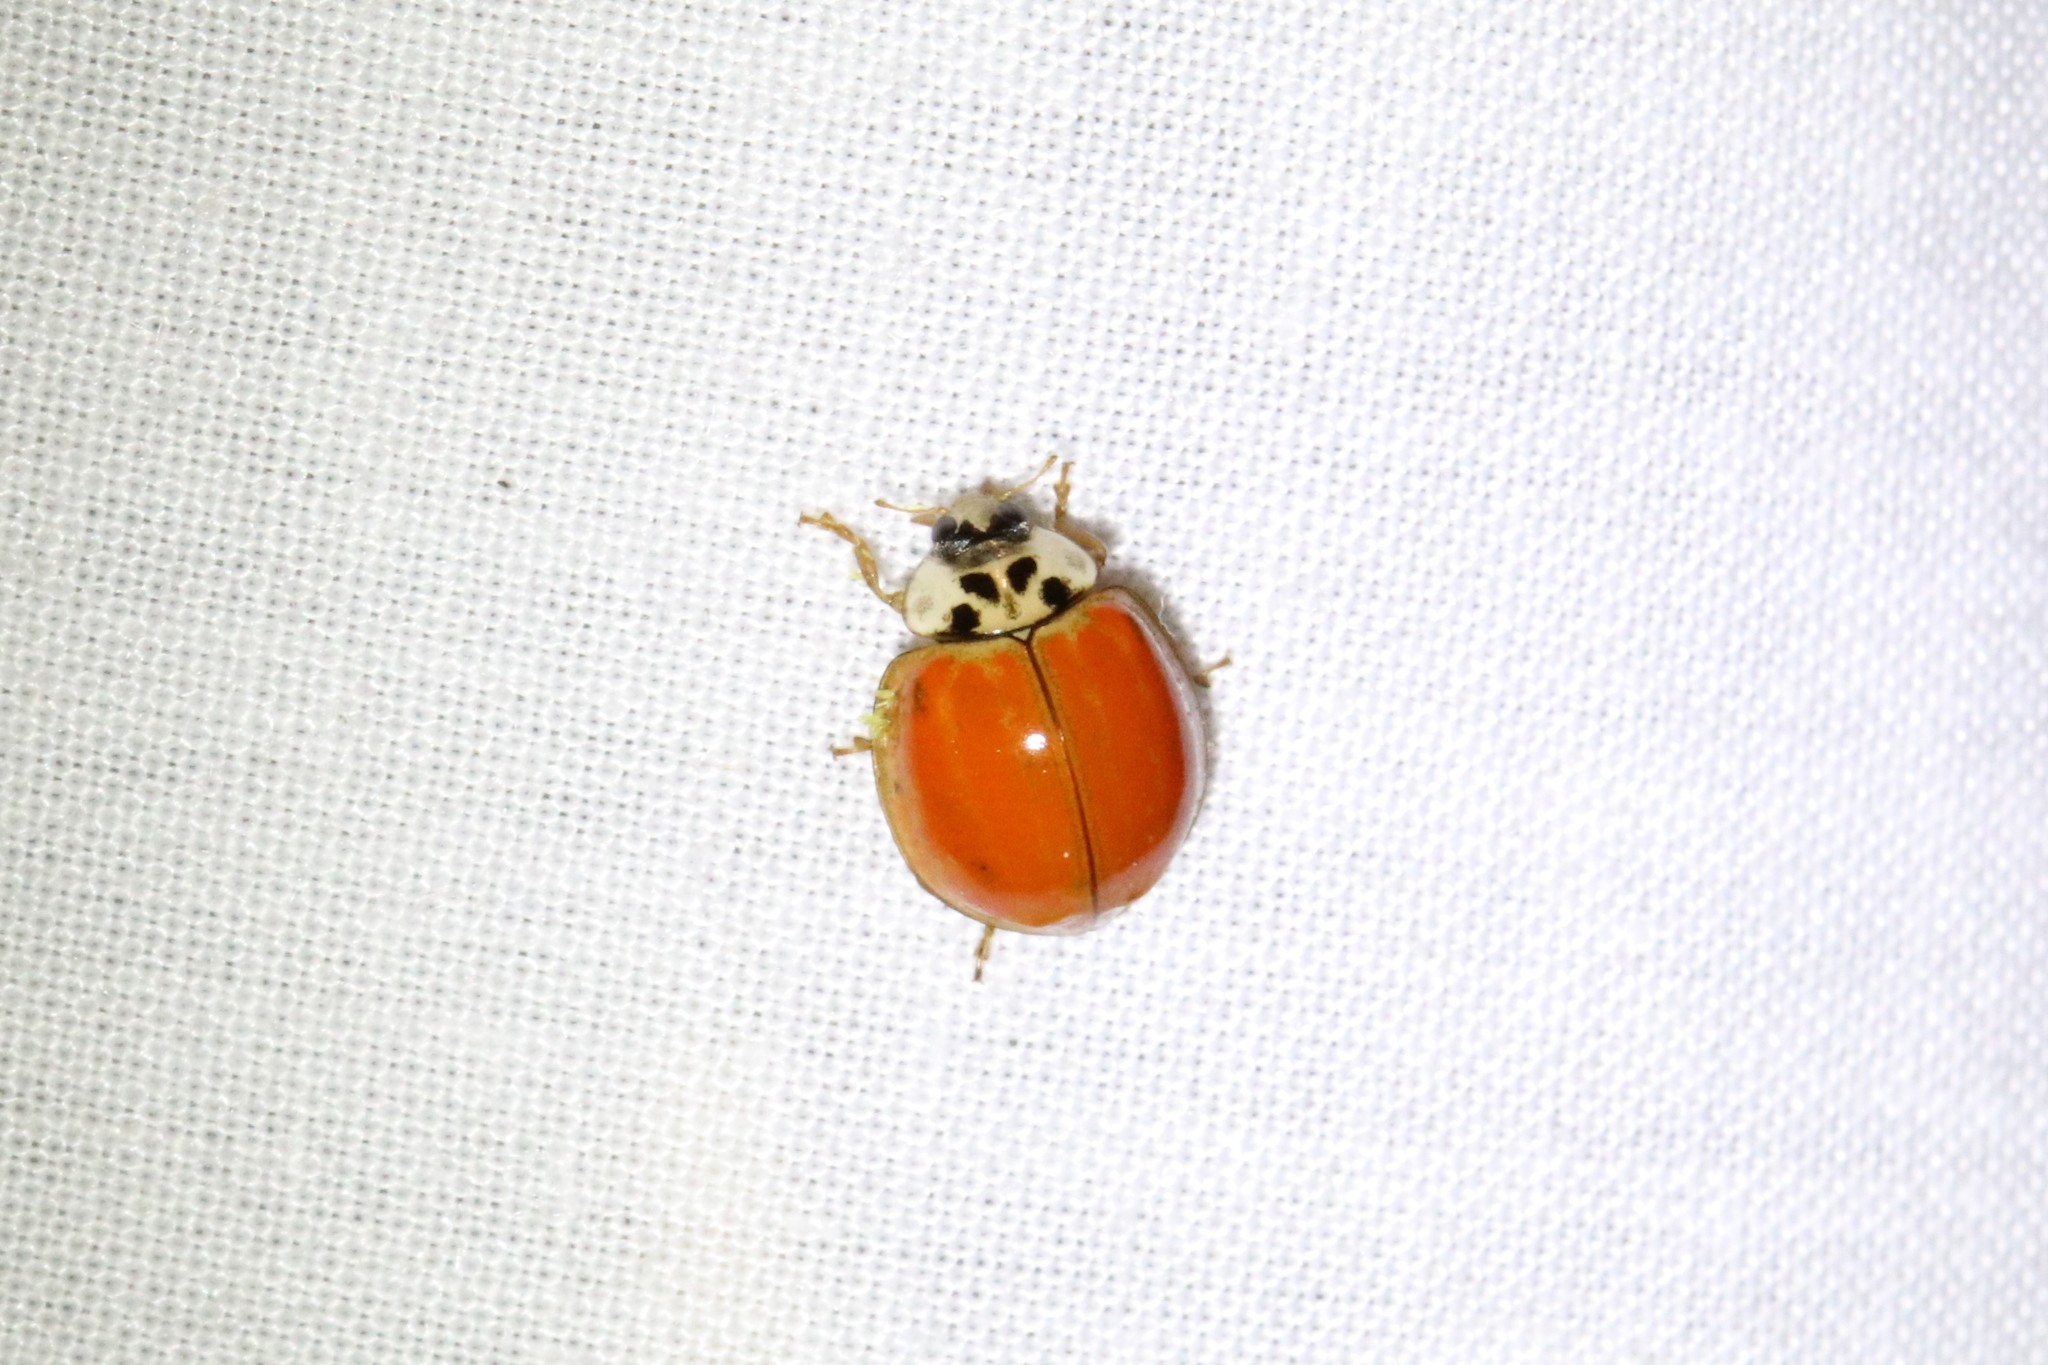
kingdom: Animalia
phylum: Arthropoda
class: Insecta
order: Coleoptera
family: Coccinellidae
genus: Harmonia
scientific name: Harmonia axyridis
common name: Harlequin ladybird
